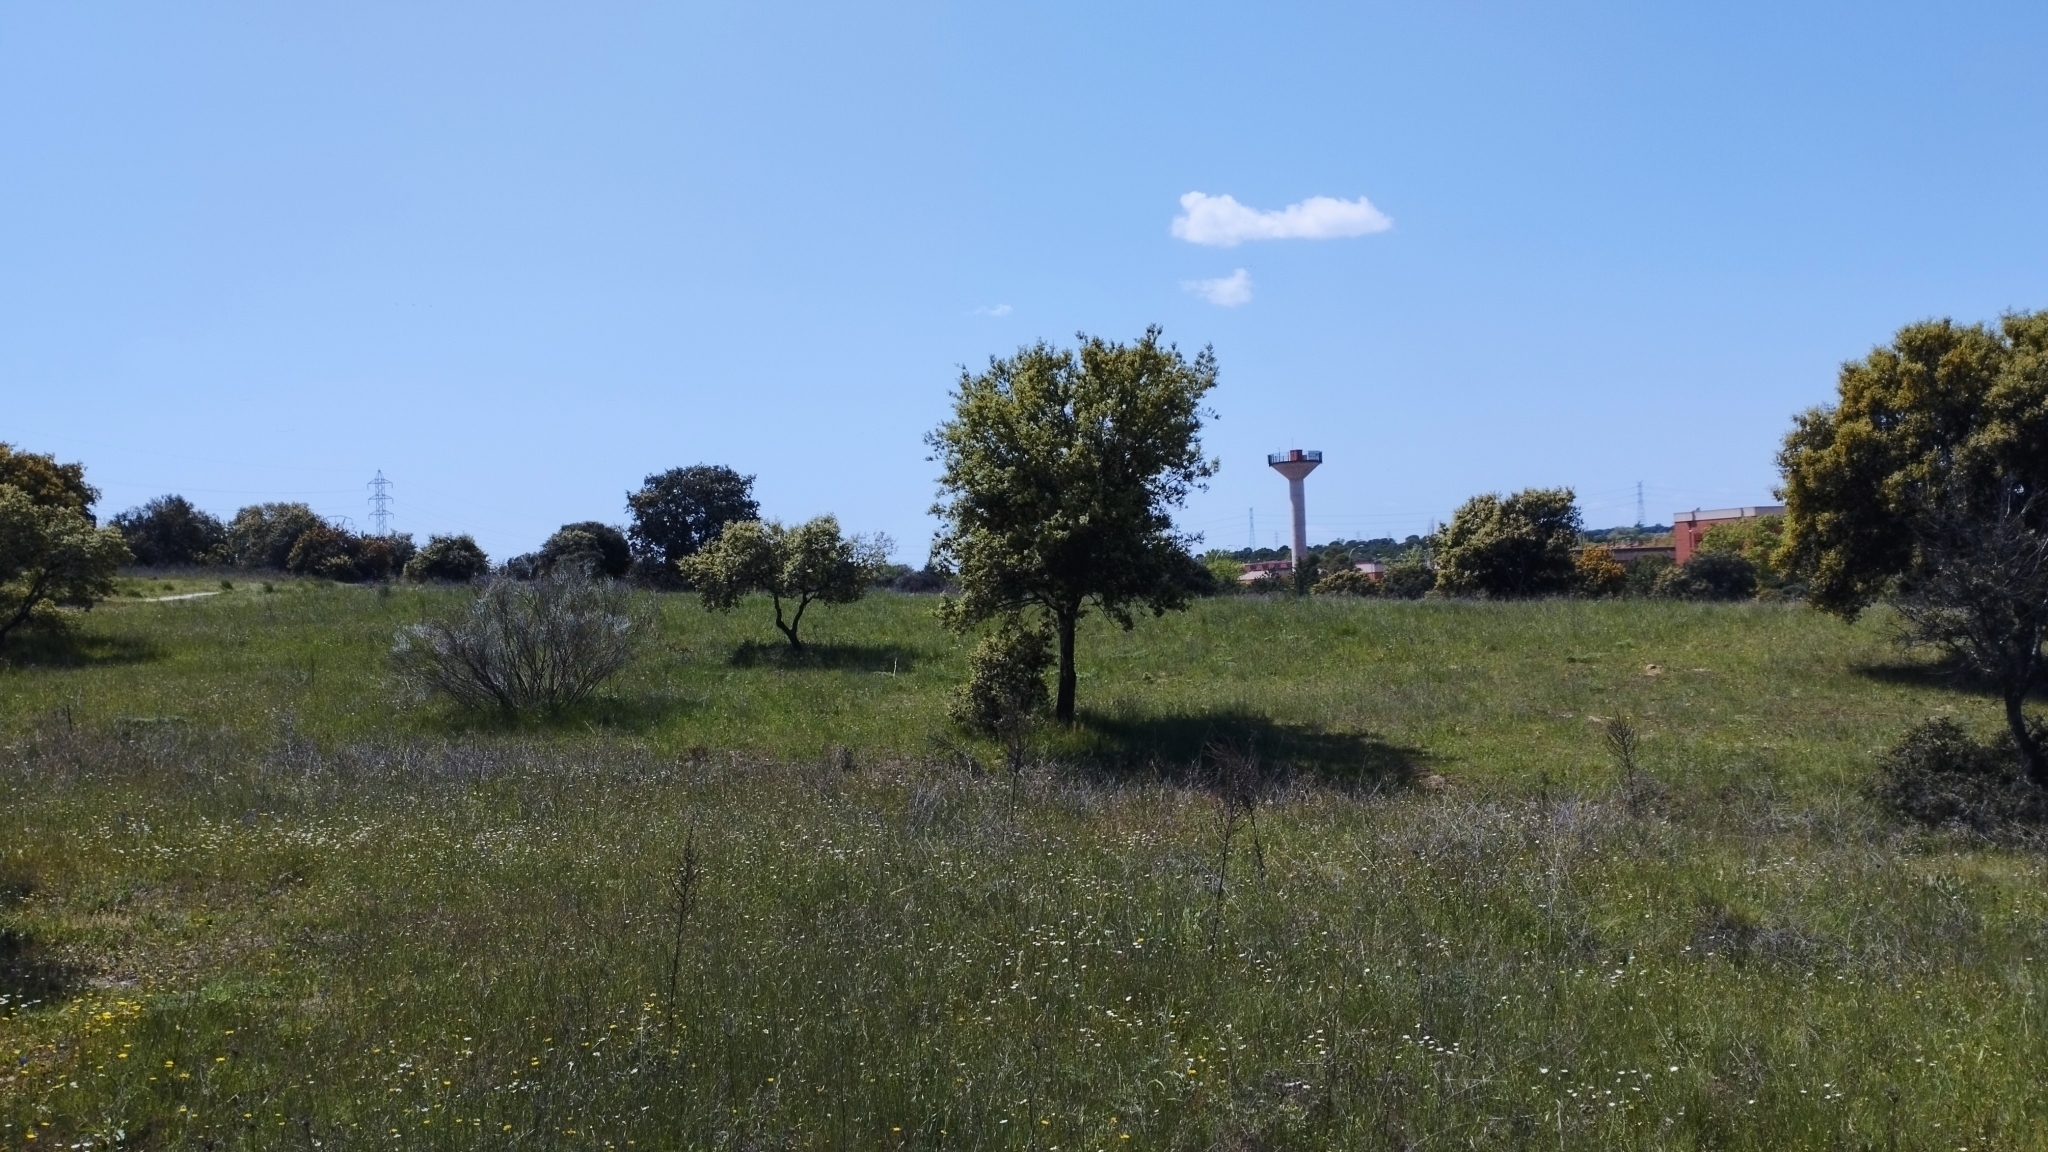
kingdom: Plantae
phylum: Tracheophyta
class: Magnoliopsida
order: Fagales
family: Fagaceae
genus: Quercus
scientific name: Quercus rotundifolia
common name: Holm oak
